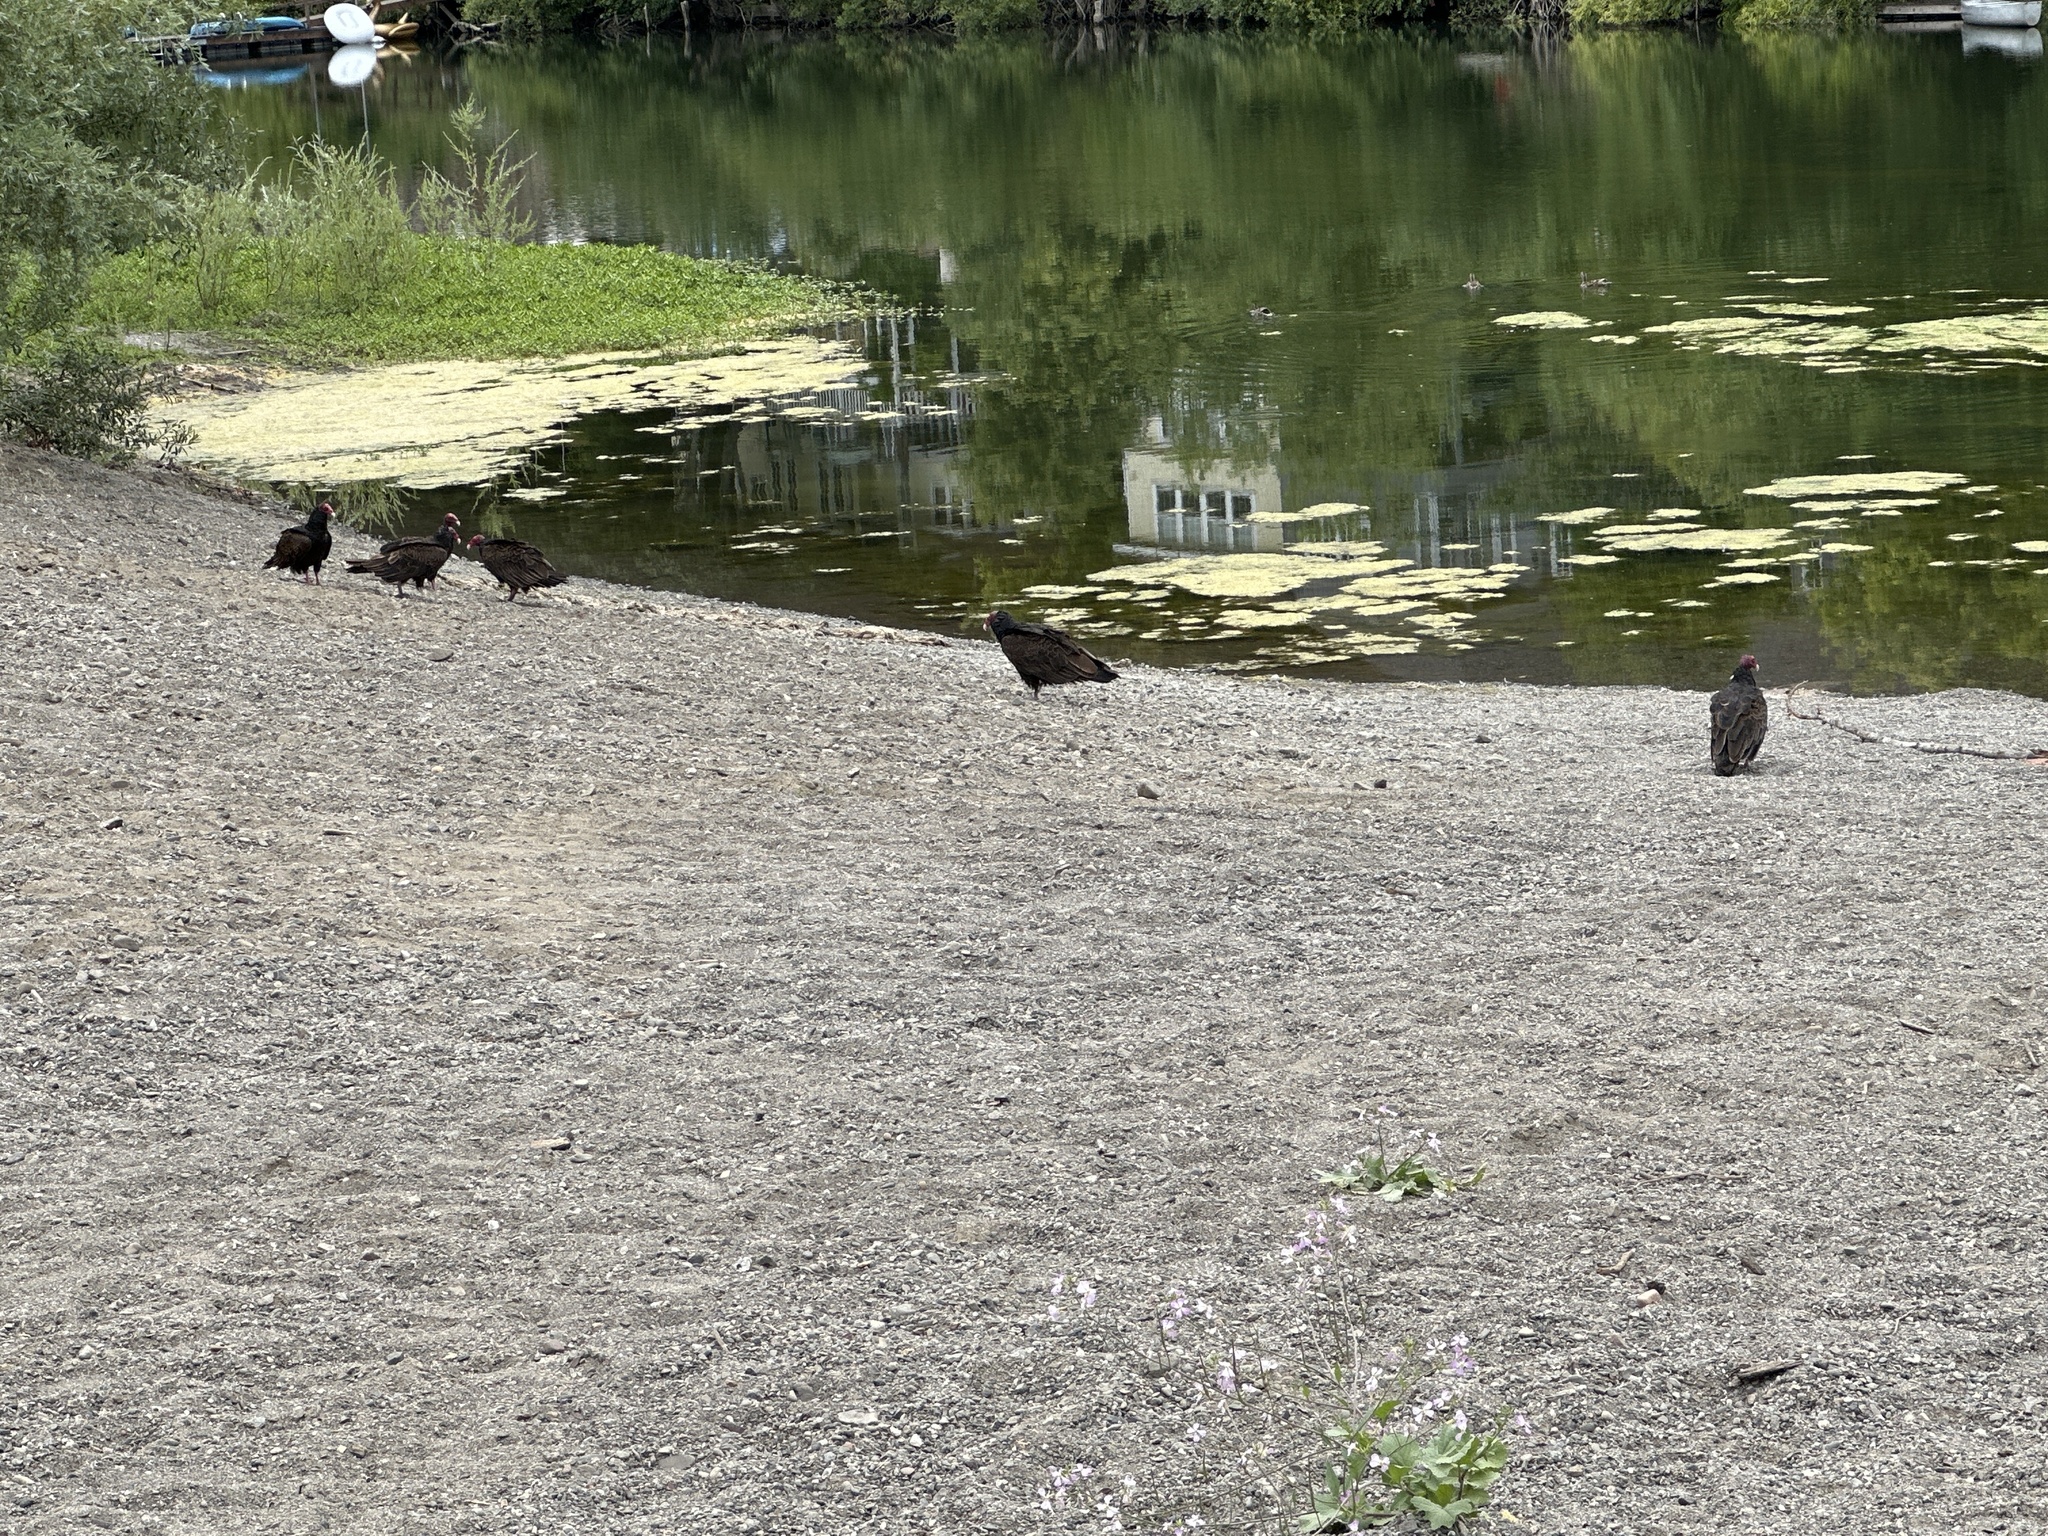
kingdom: Animalia
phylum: Chordata
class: Aves
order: Accipitriformes
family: Cathartidae
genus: Cathartes
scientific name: Cathartes aura
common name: Turkey vulture
